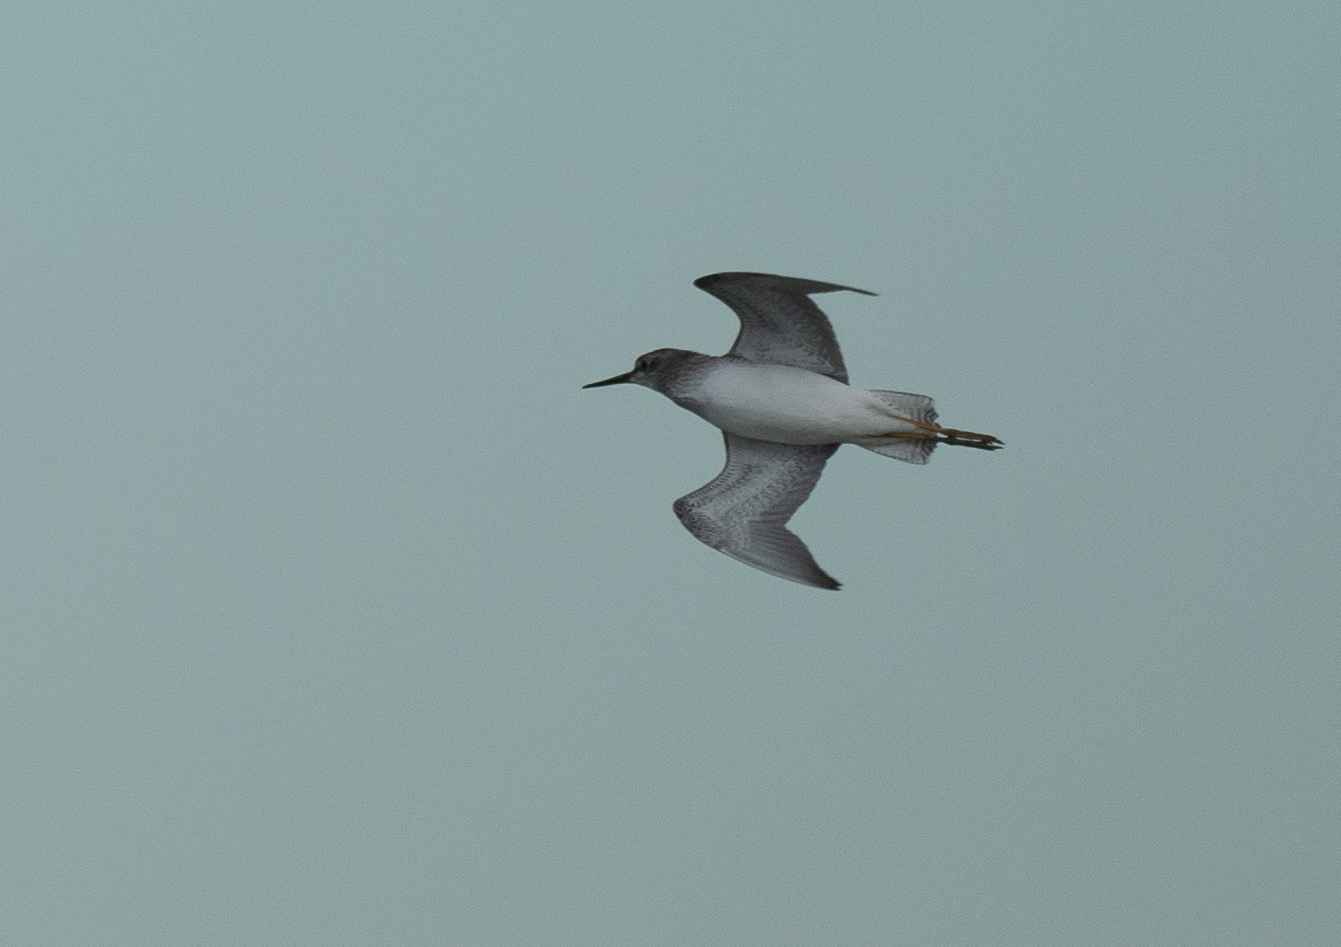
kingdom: Animalia
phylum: Chordata
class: Aves
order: Charadriiformes
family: Scolopacidae
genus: Tringa
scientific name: Tringa flavipes
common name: Lesser yellowlegs
